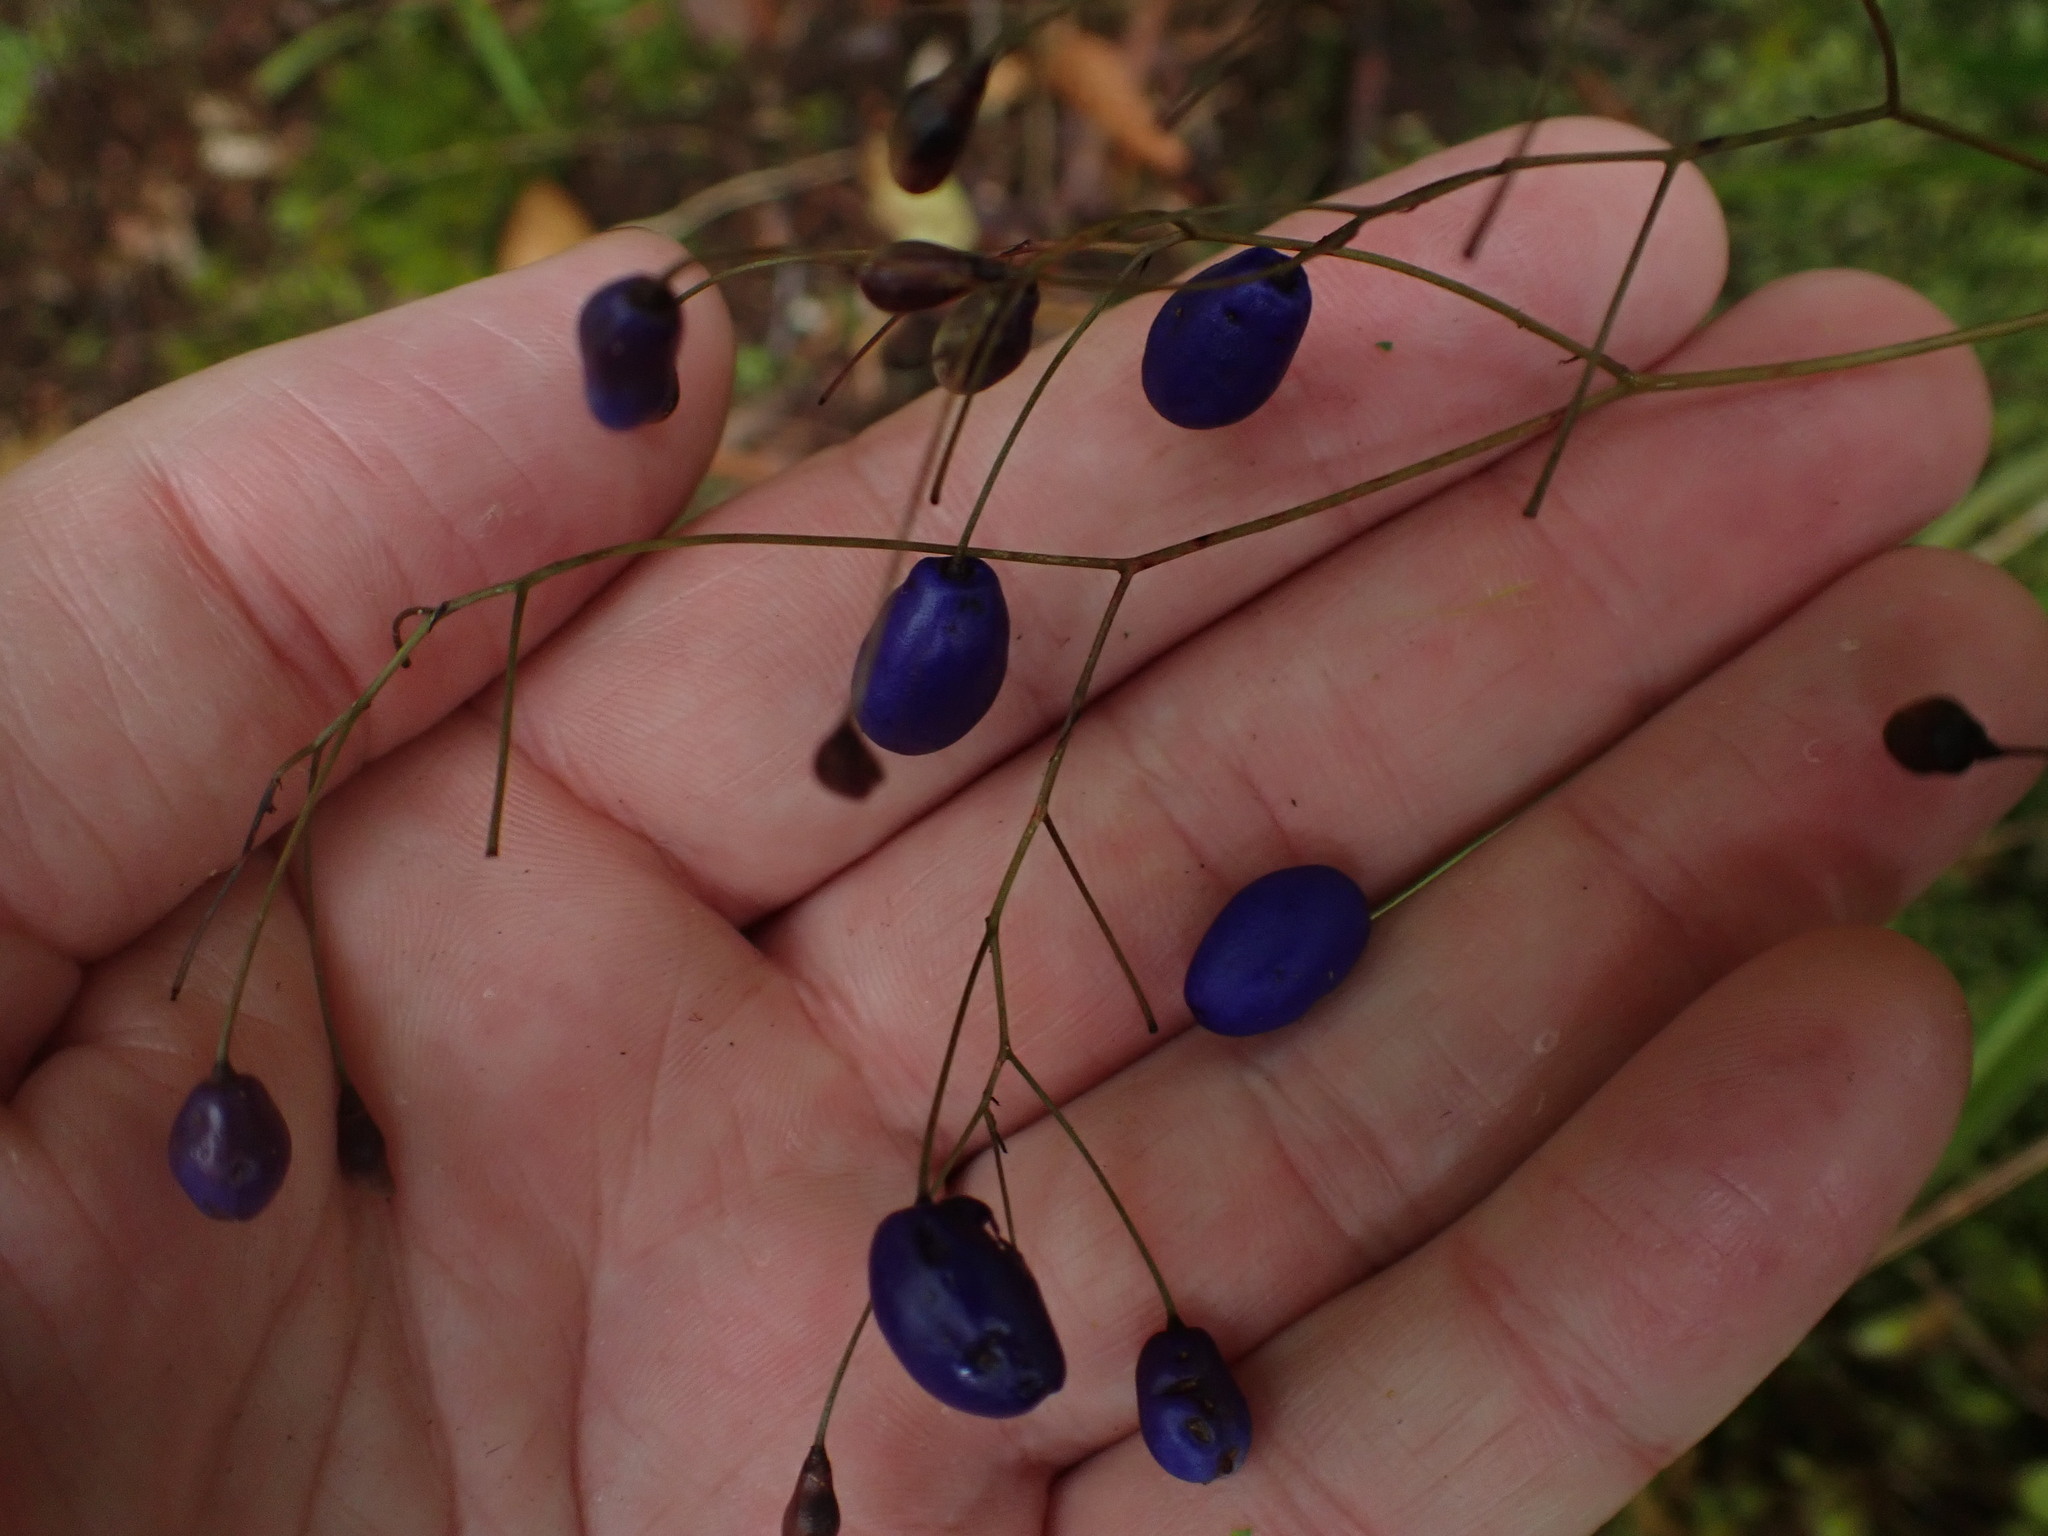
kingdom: Plantae
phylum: Tracheophyta
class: Liliopsida
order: Asparagales
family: Asphodelaceae
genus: Dianella
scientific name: Dianella nigra
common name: New zealand-blueberry
